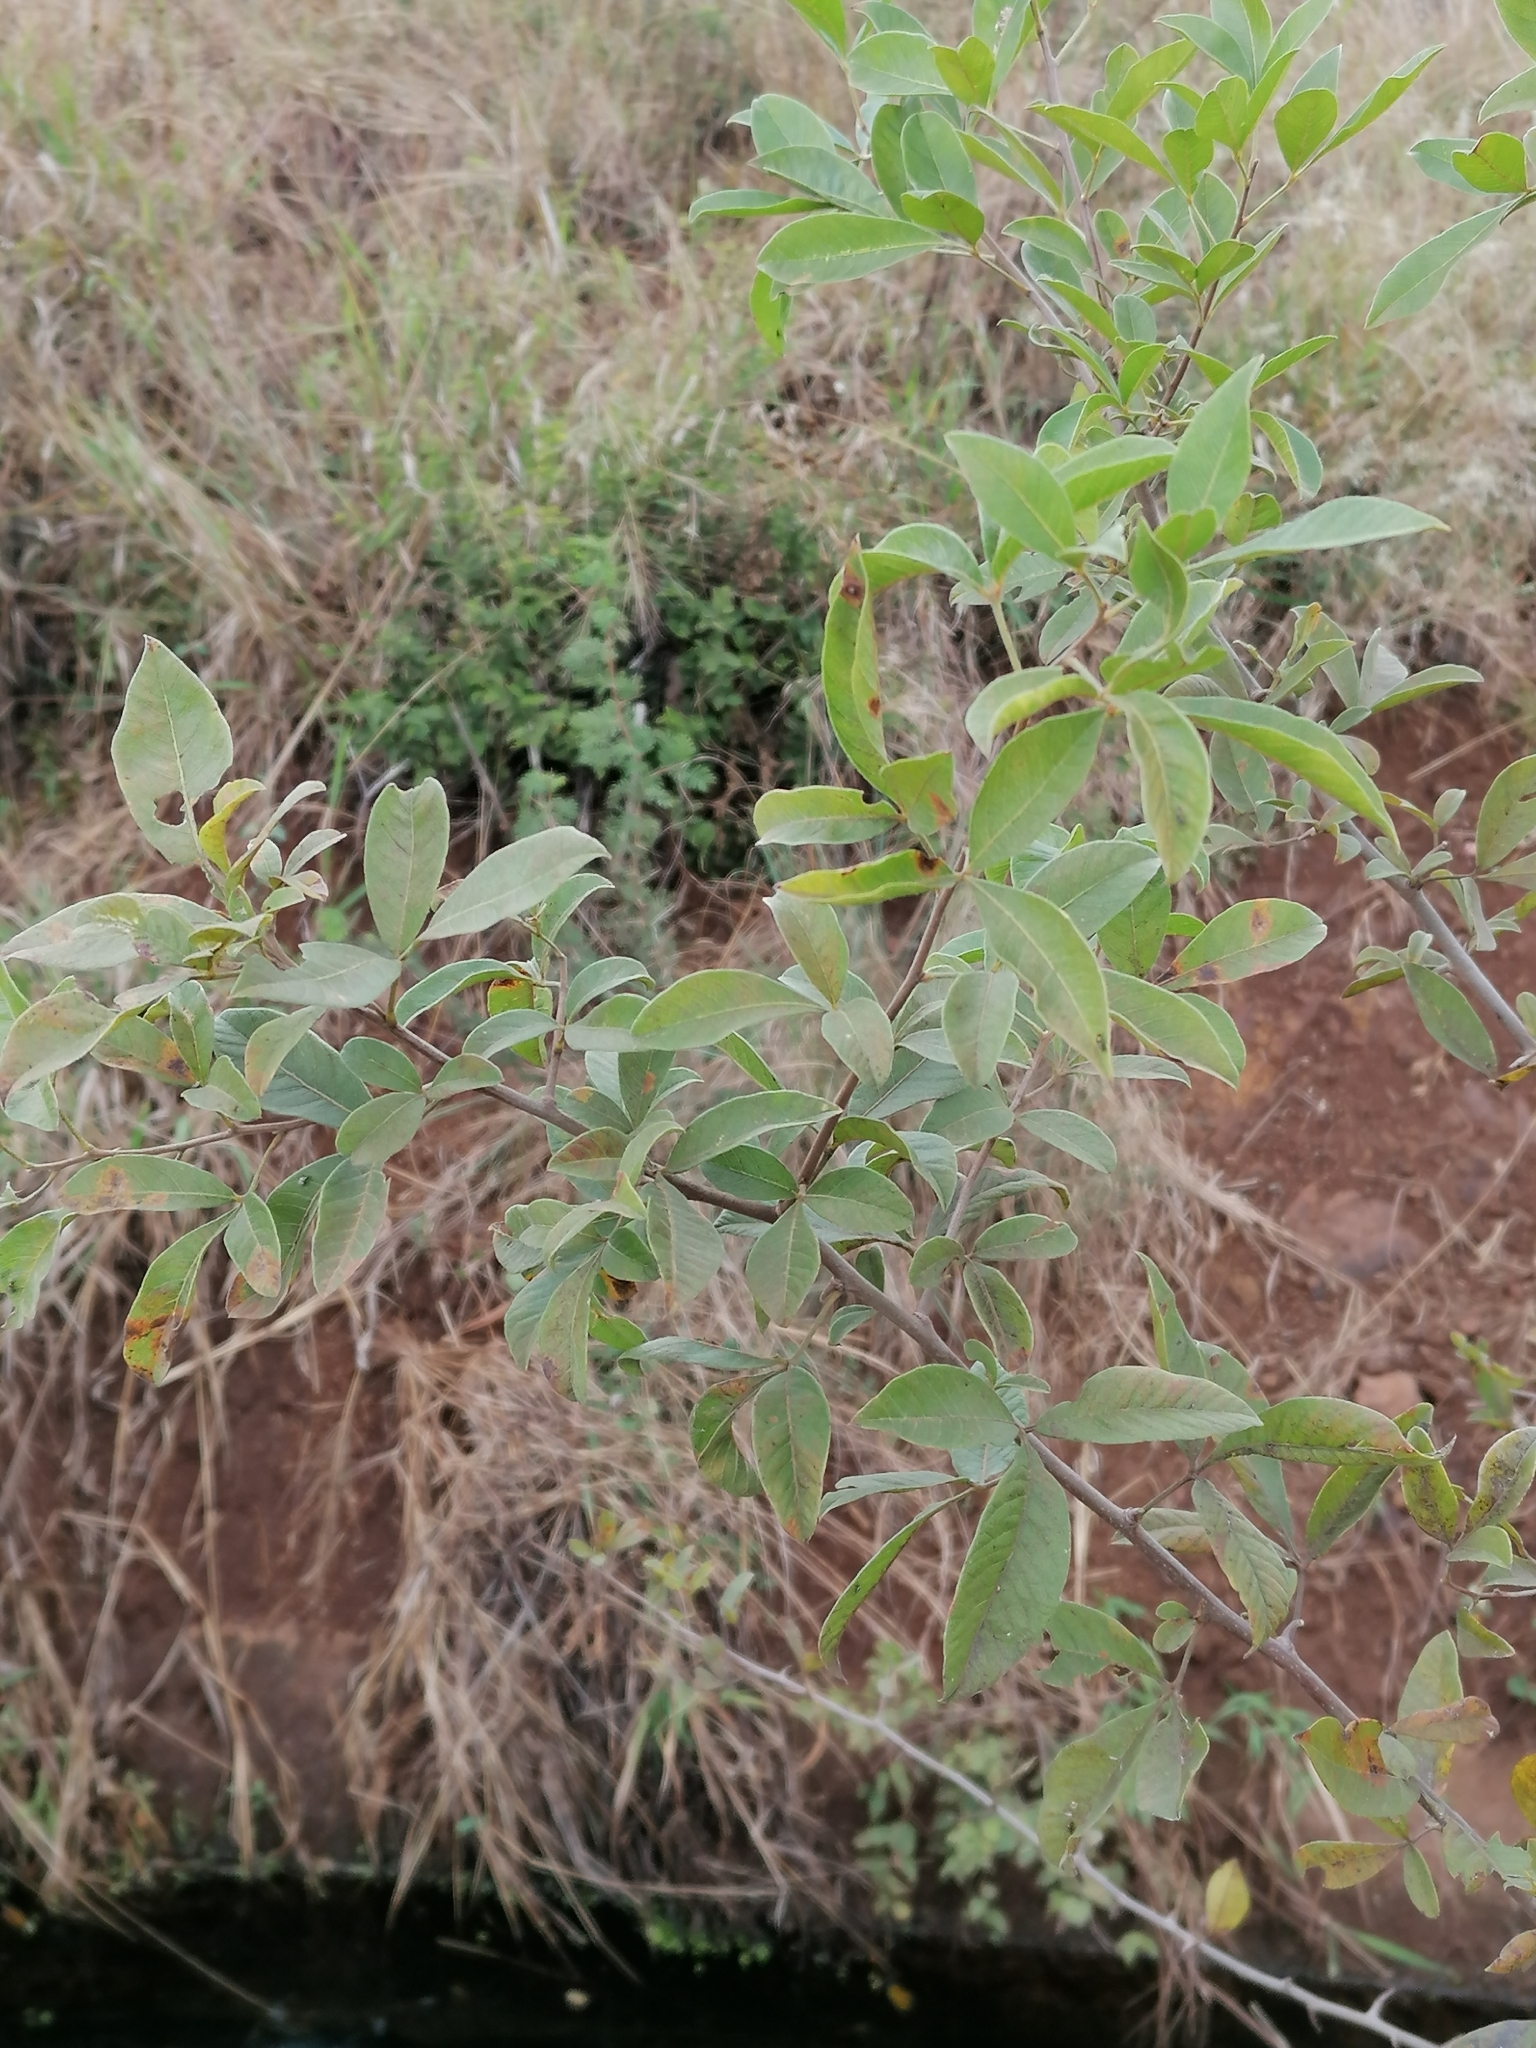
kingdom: Plantae
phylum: Tracheophyta
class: Magnoliopsida
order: Sapindales
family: Anacardiaceae
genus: Searsia
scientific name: Searsia pyroides
